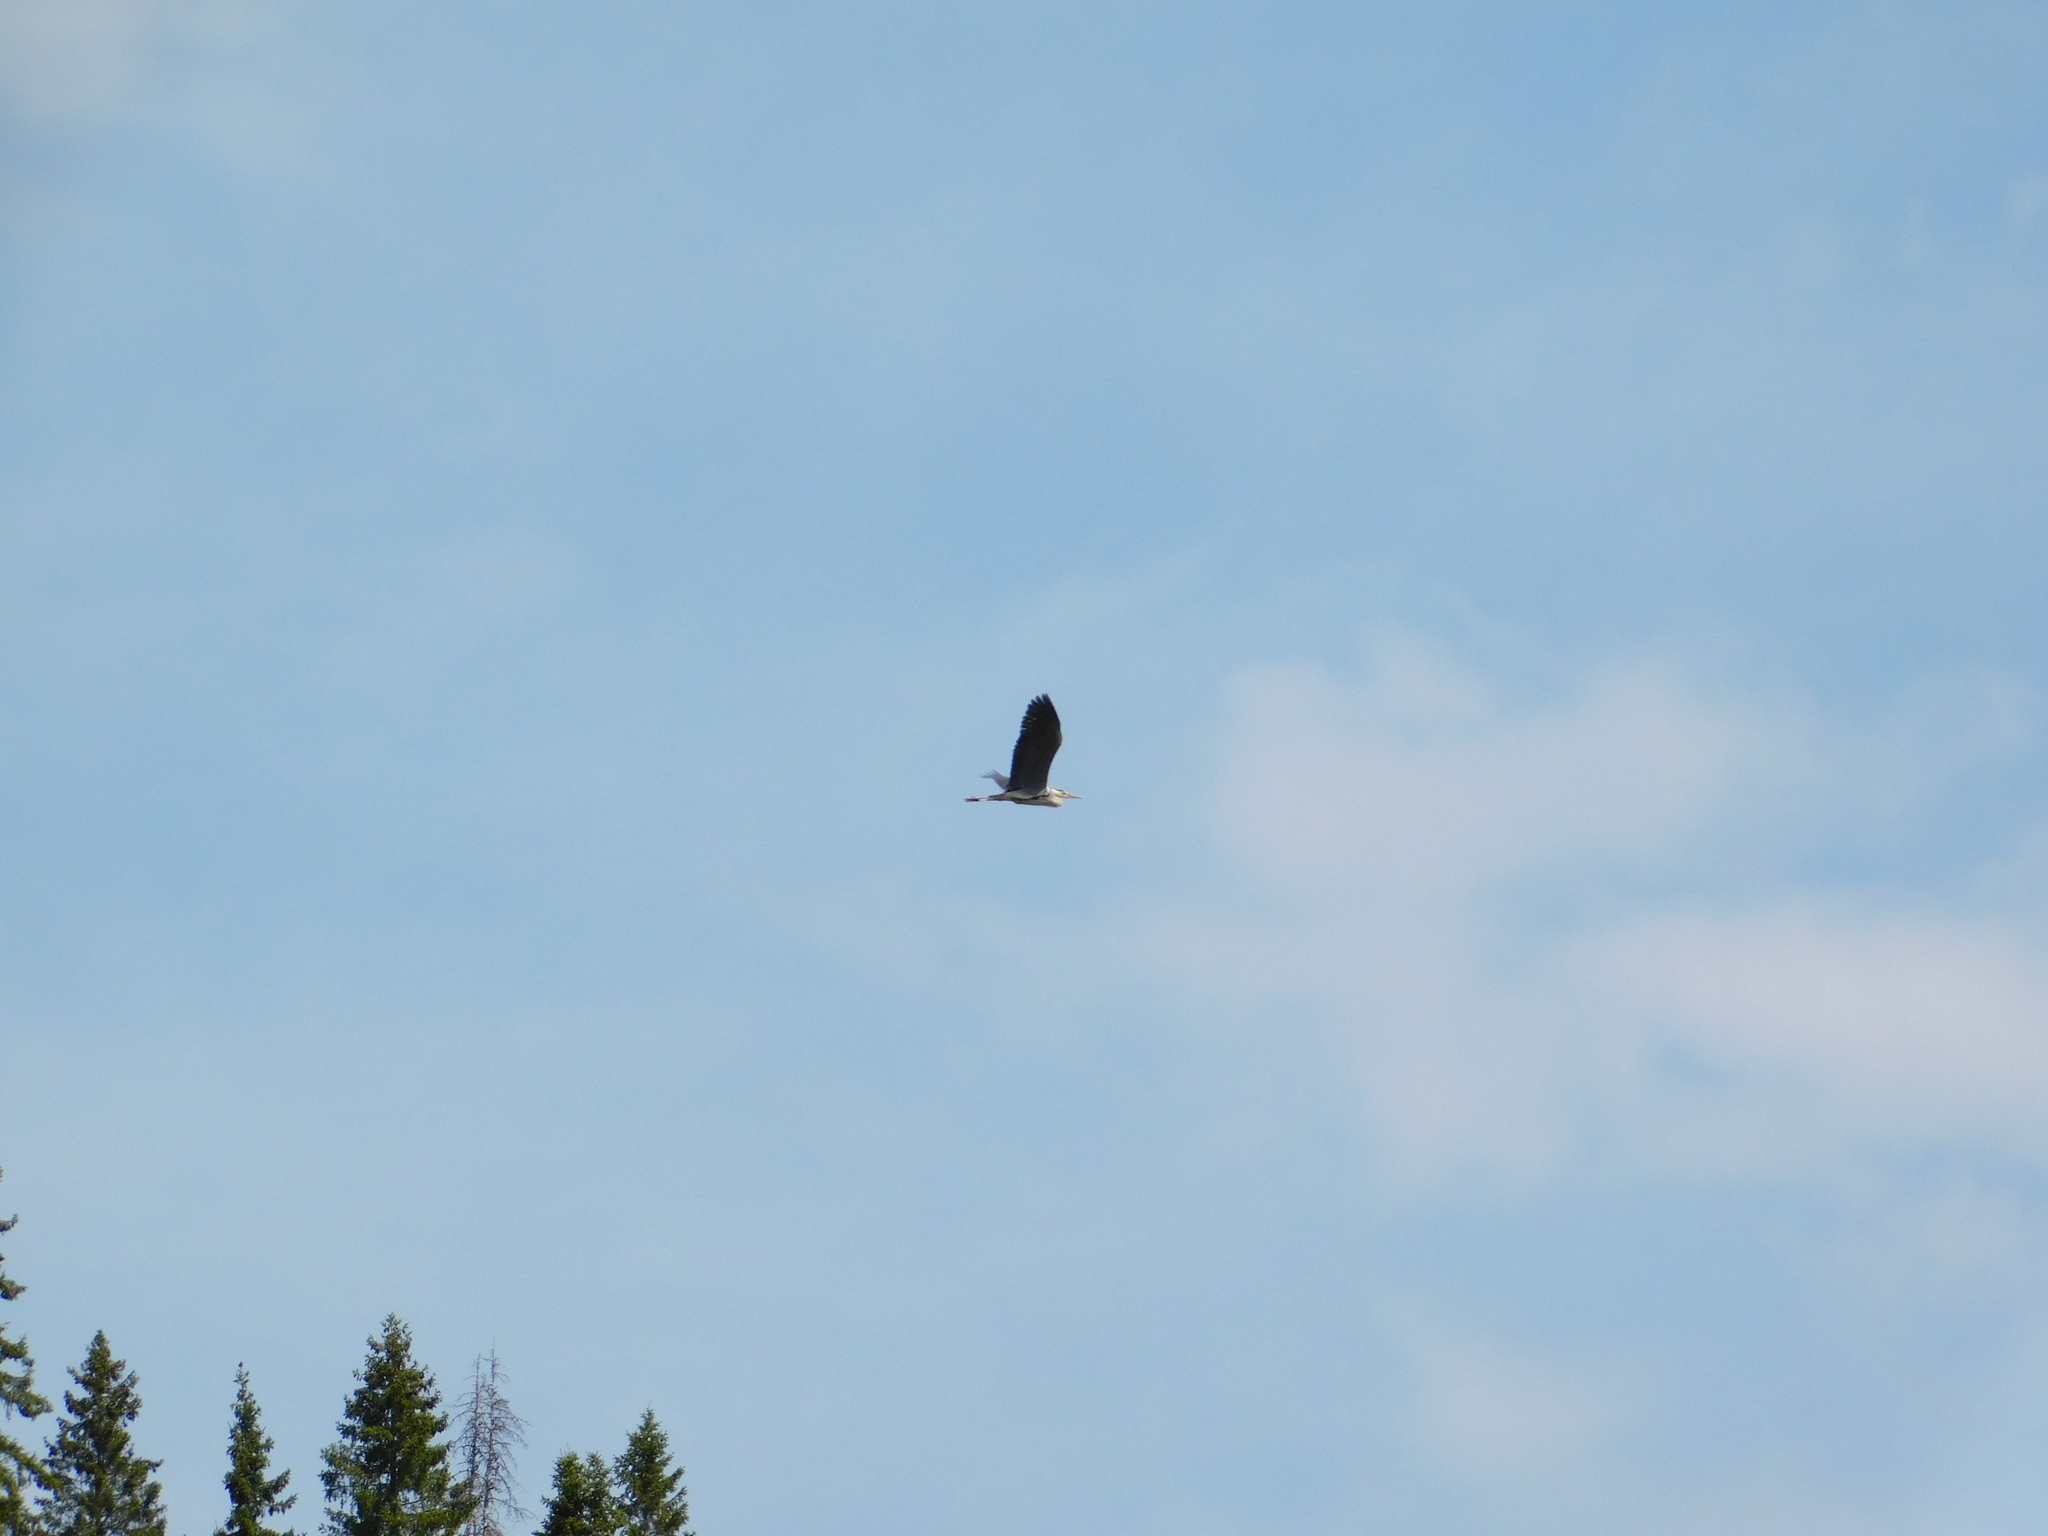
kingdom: Animalia
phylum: Chordata
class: Aves
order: Pelecaniformes
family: Ardeidae
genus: Ardea
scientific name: Ardea cinerea
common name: Grey heron
